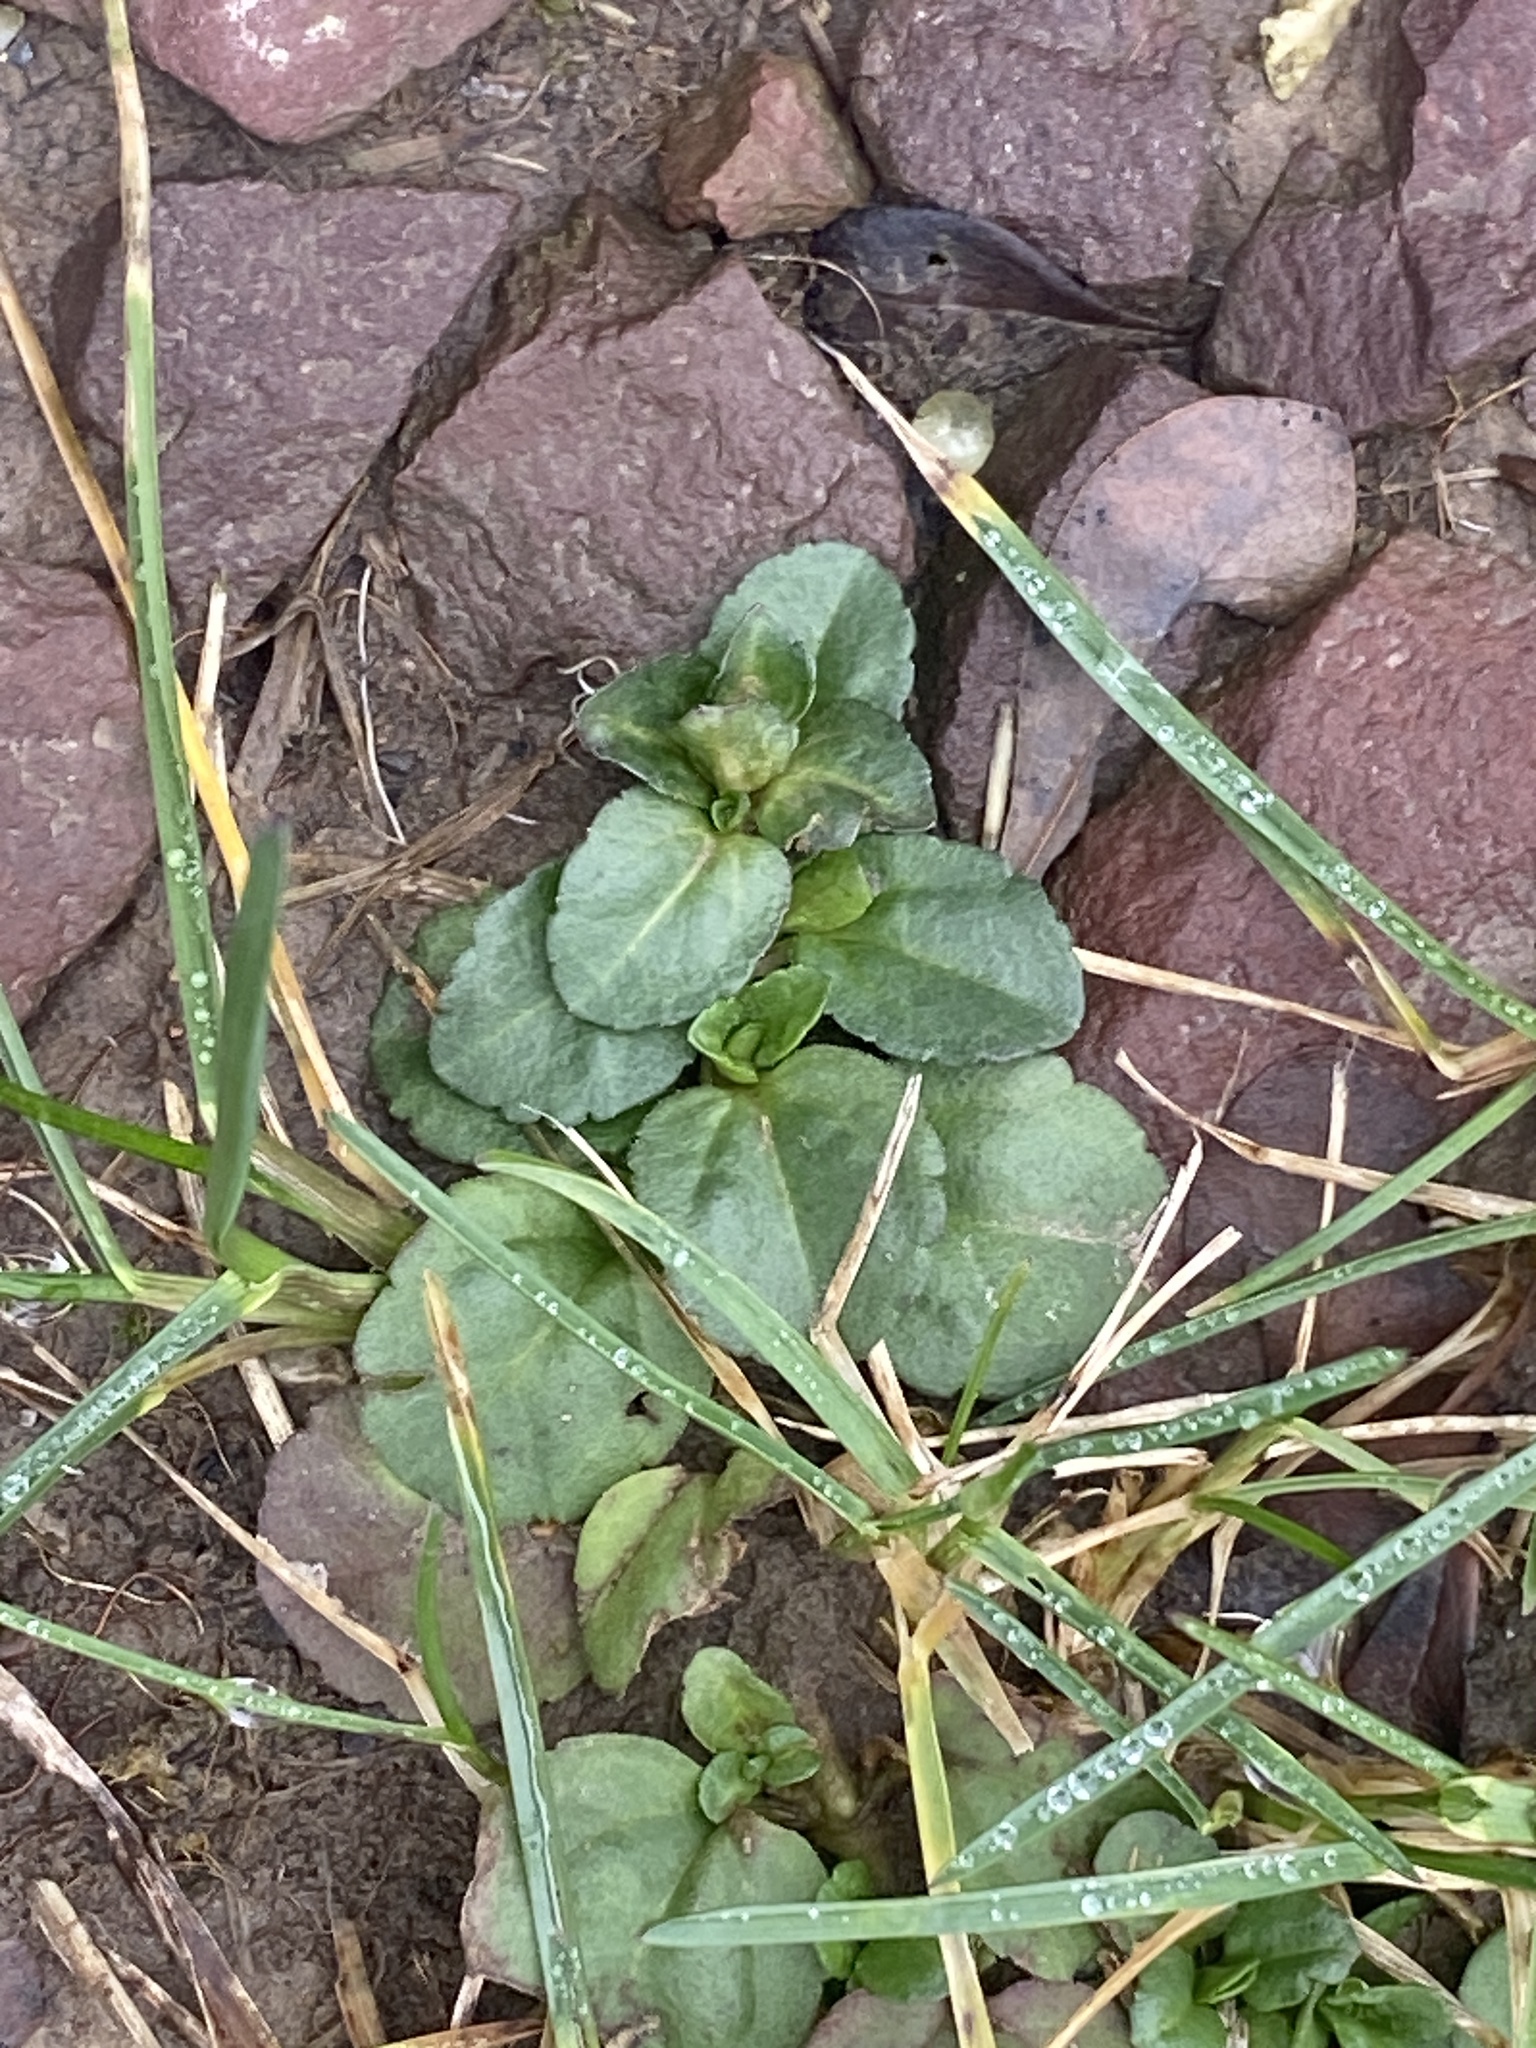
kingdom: Plantae
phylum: Tracheophyta
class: Magnoliopsida
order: Lamiales
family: Plantaginaceae
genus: Veronica
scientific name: Veronica serpyllifolia
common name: Thyme-leaved speedwell
